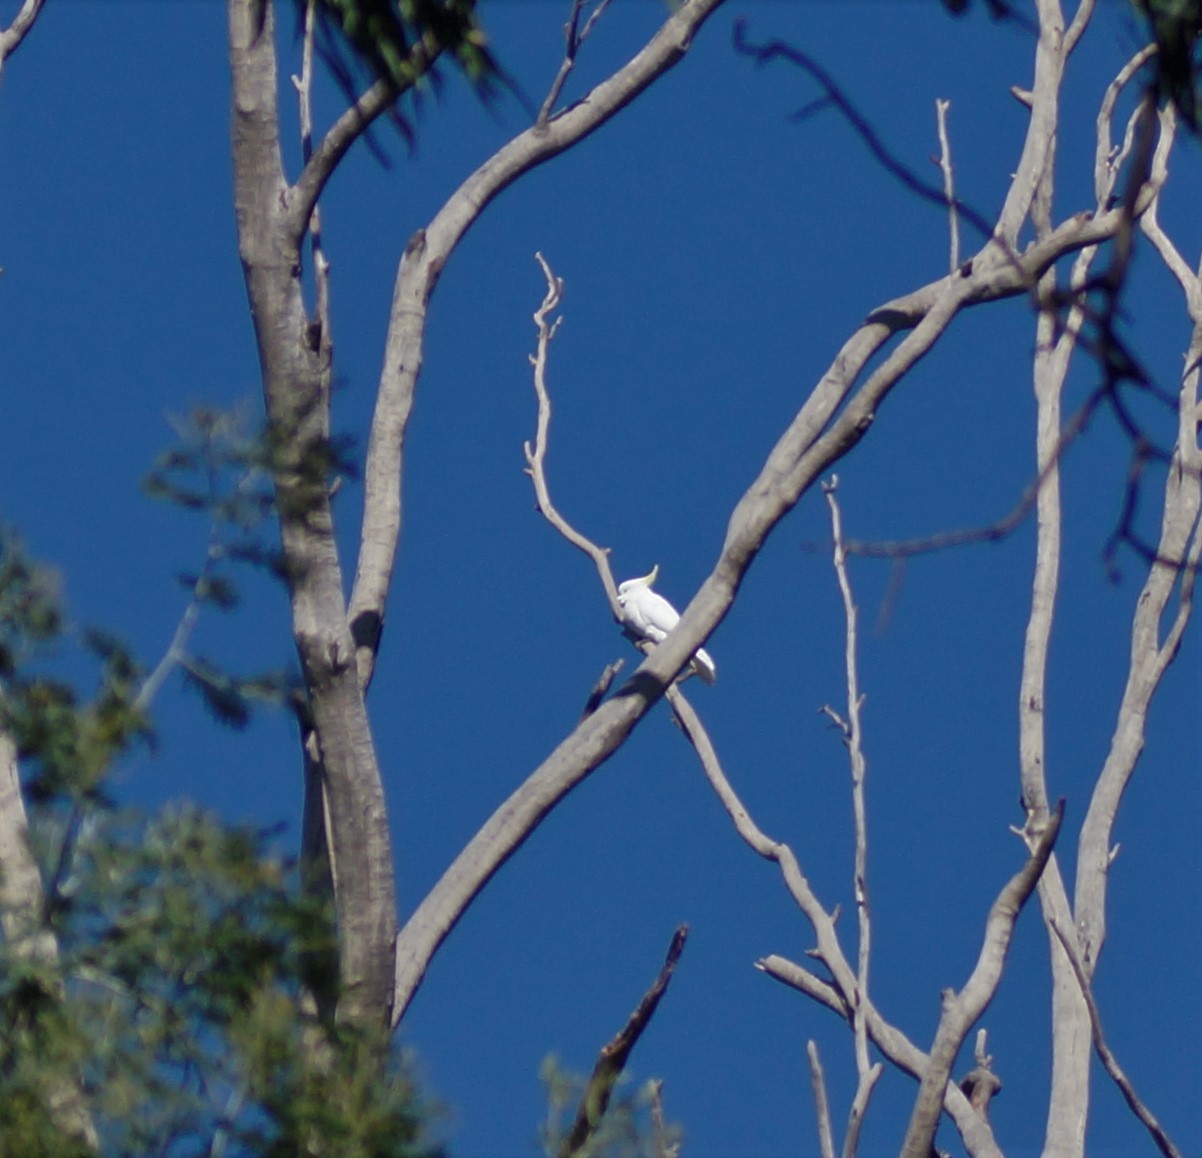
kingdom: Animalia
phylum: Chordata
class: Aves
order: Psittaciformes
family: Psittacidae
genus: Cacatua
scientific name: Cacatua galerita
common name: Sulphur-crested cockatoo
